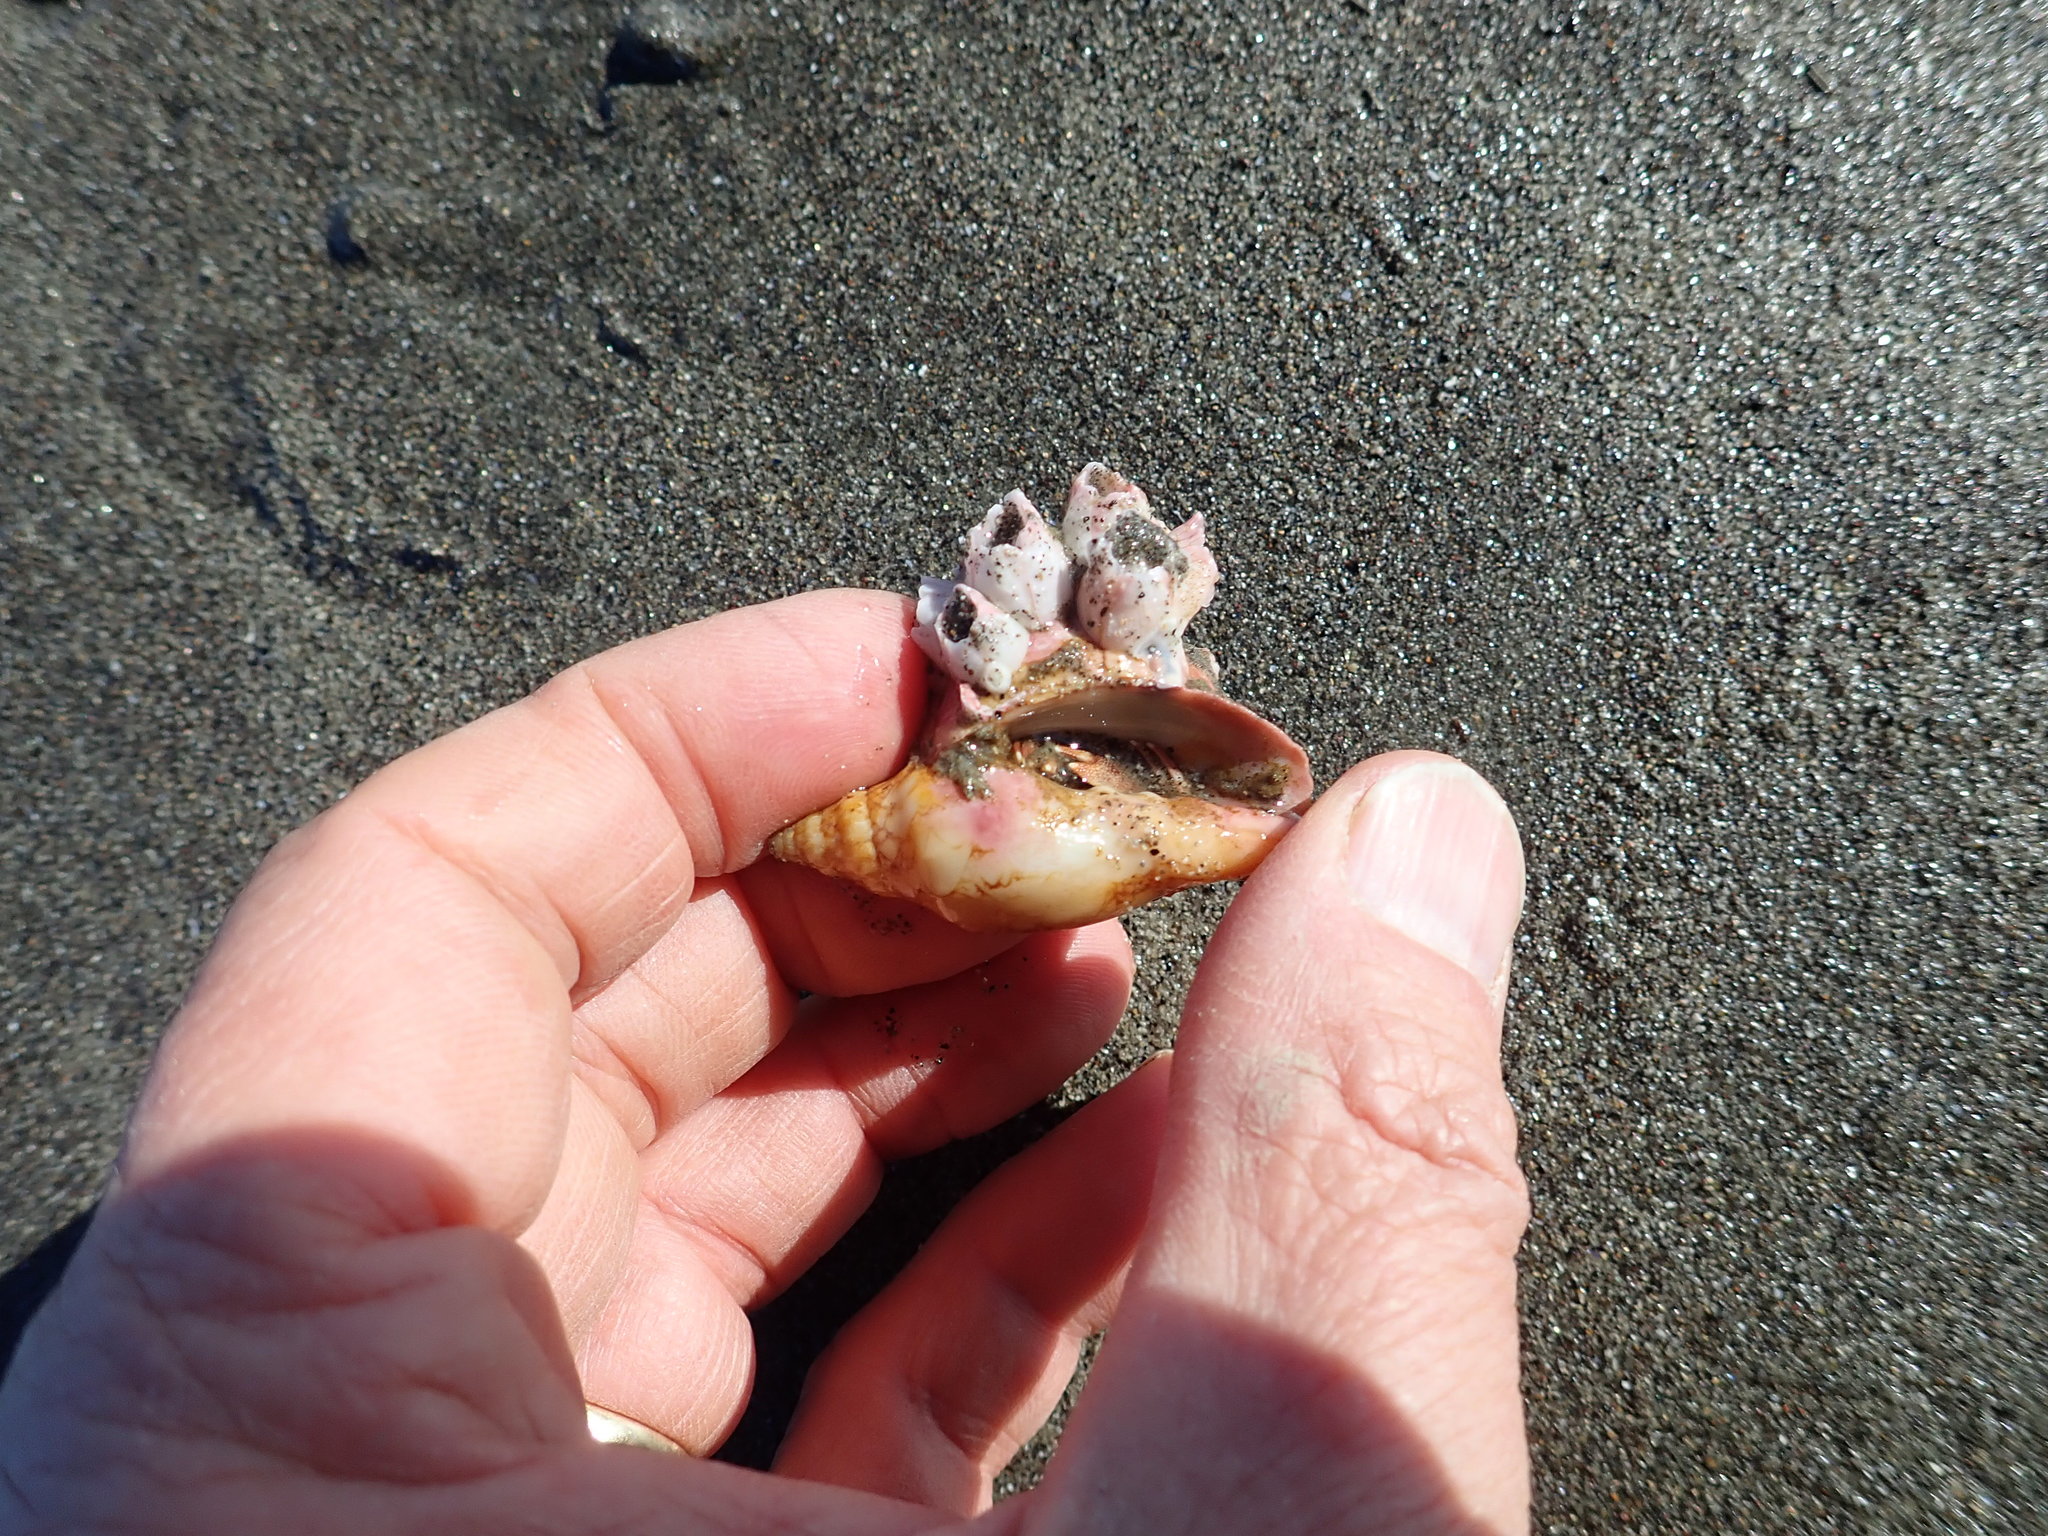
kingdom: Animalia
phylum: Arthropoda
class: Maxillopoda
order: Sessilia
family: Balanidae
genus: Notomegabalanus
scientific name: Notomegabalanus decorus
